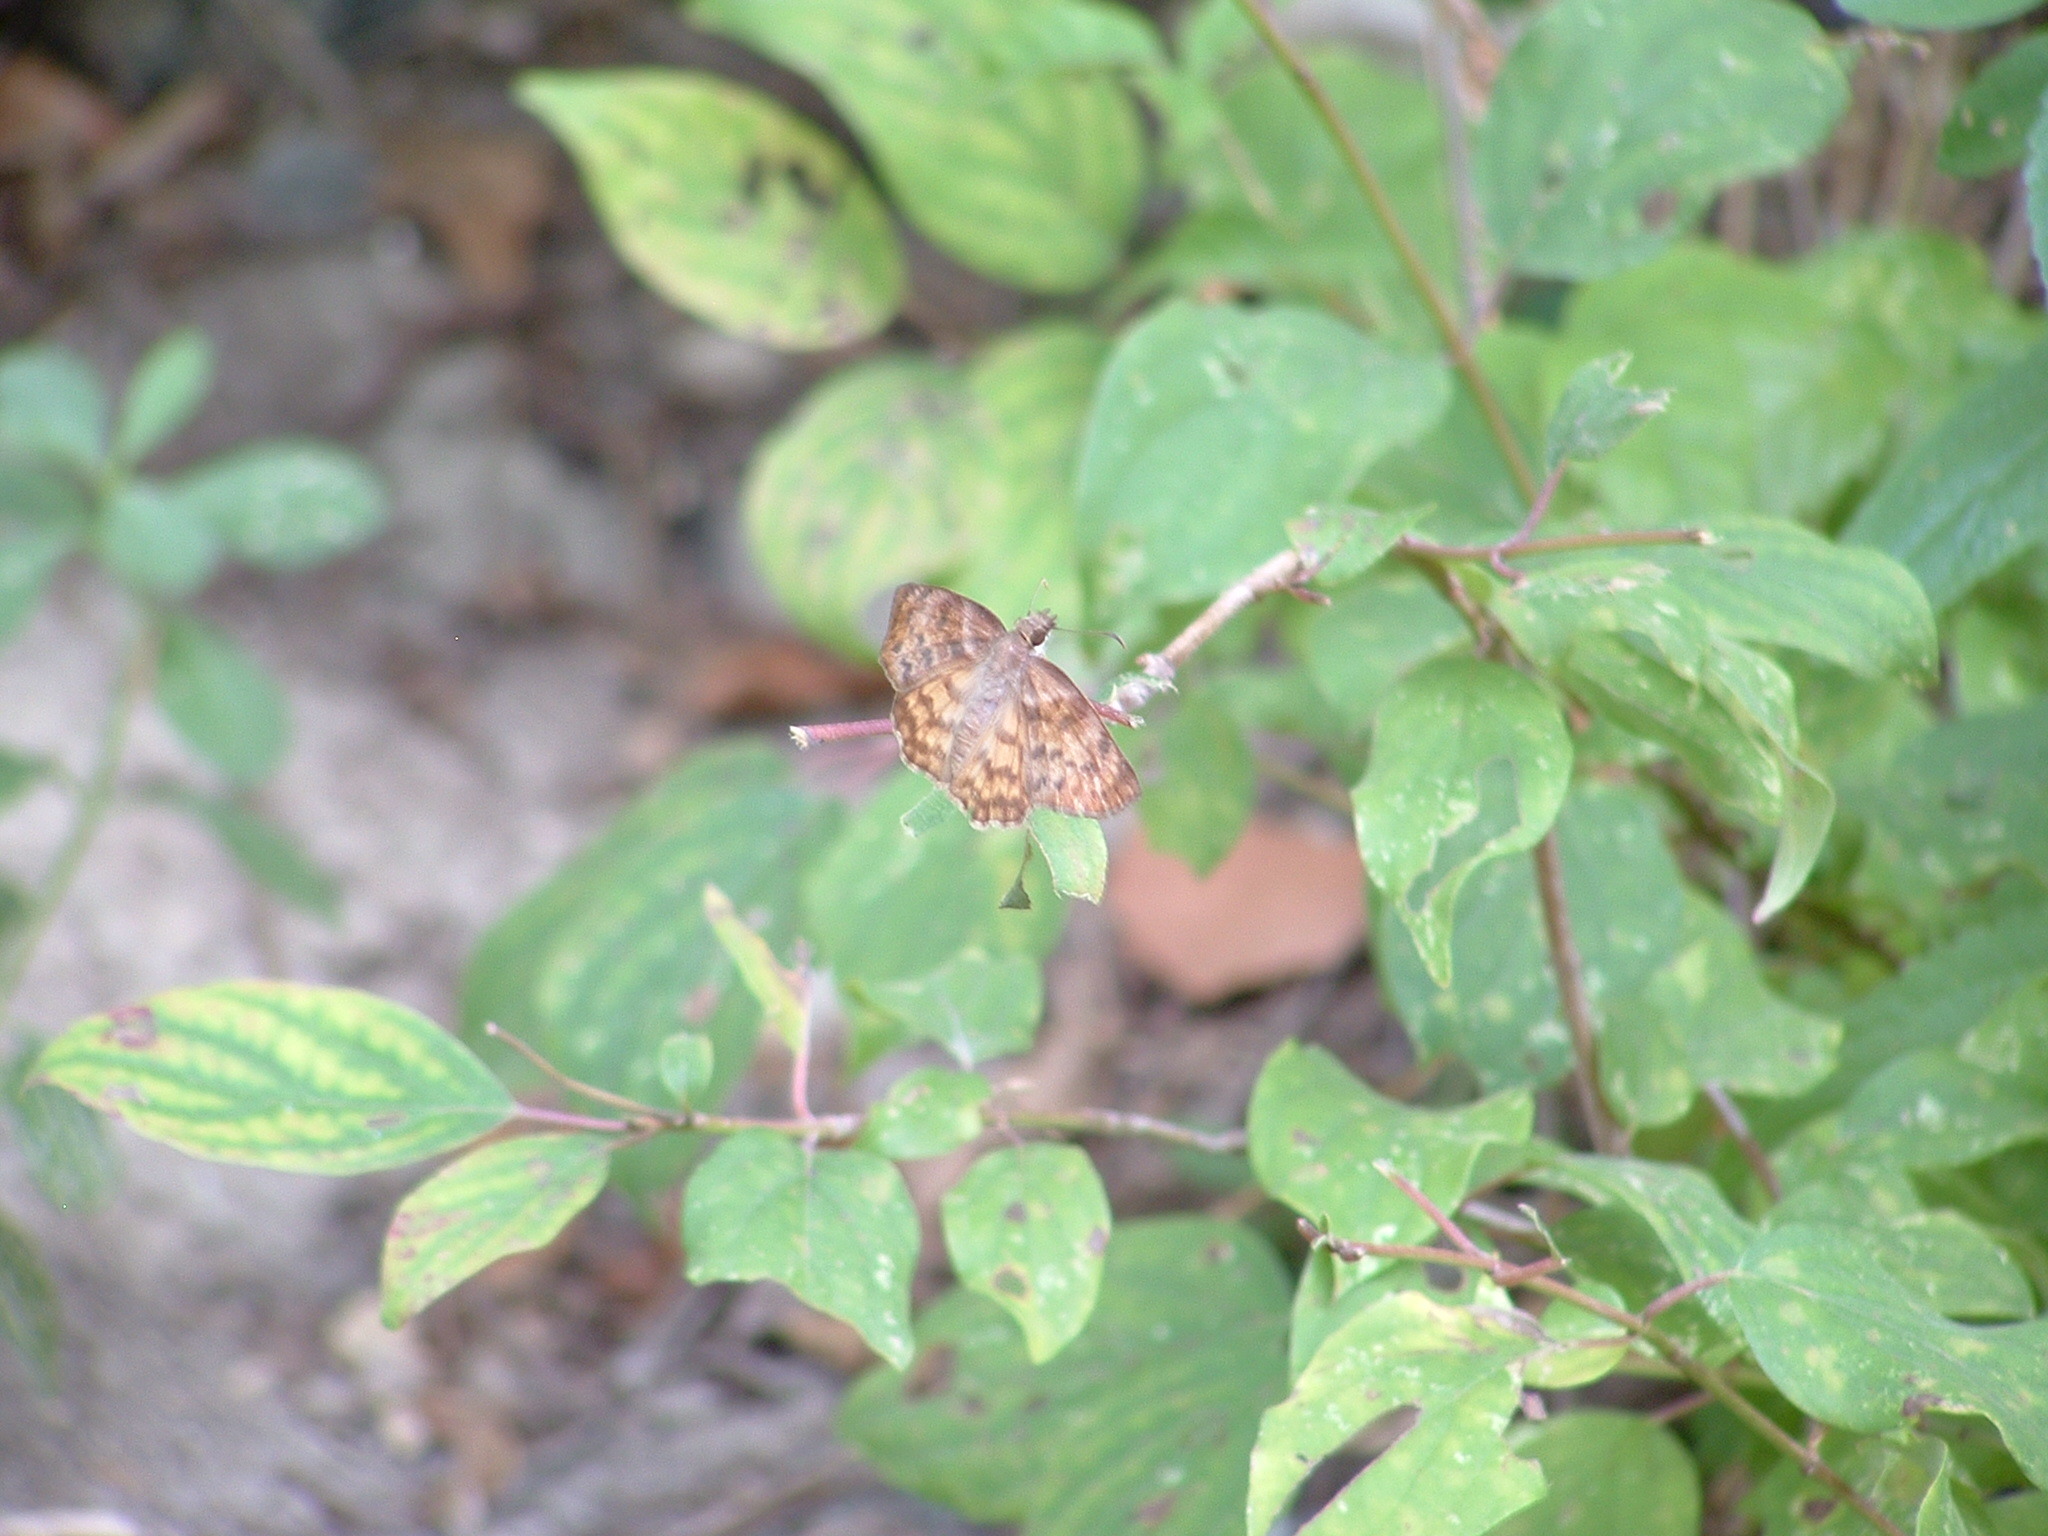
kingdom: Animalia
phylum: Arthropoda
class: Insecta
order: Lepidoptera
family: Hesperiidae
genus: Timochares
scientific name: Timochares ruptifasciata
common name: Brown-banded skipper
